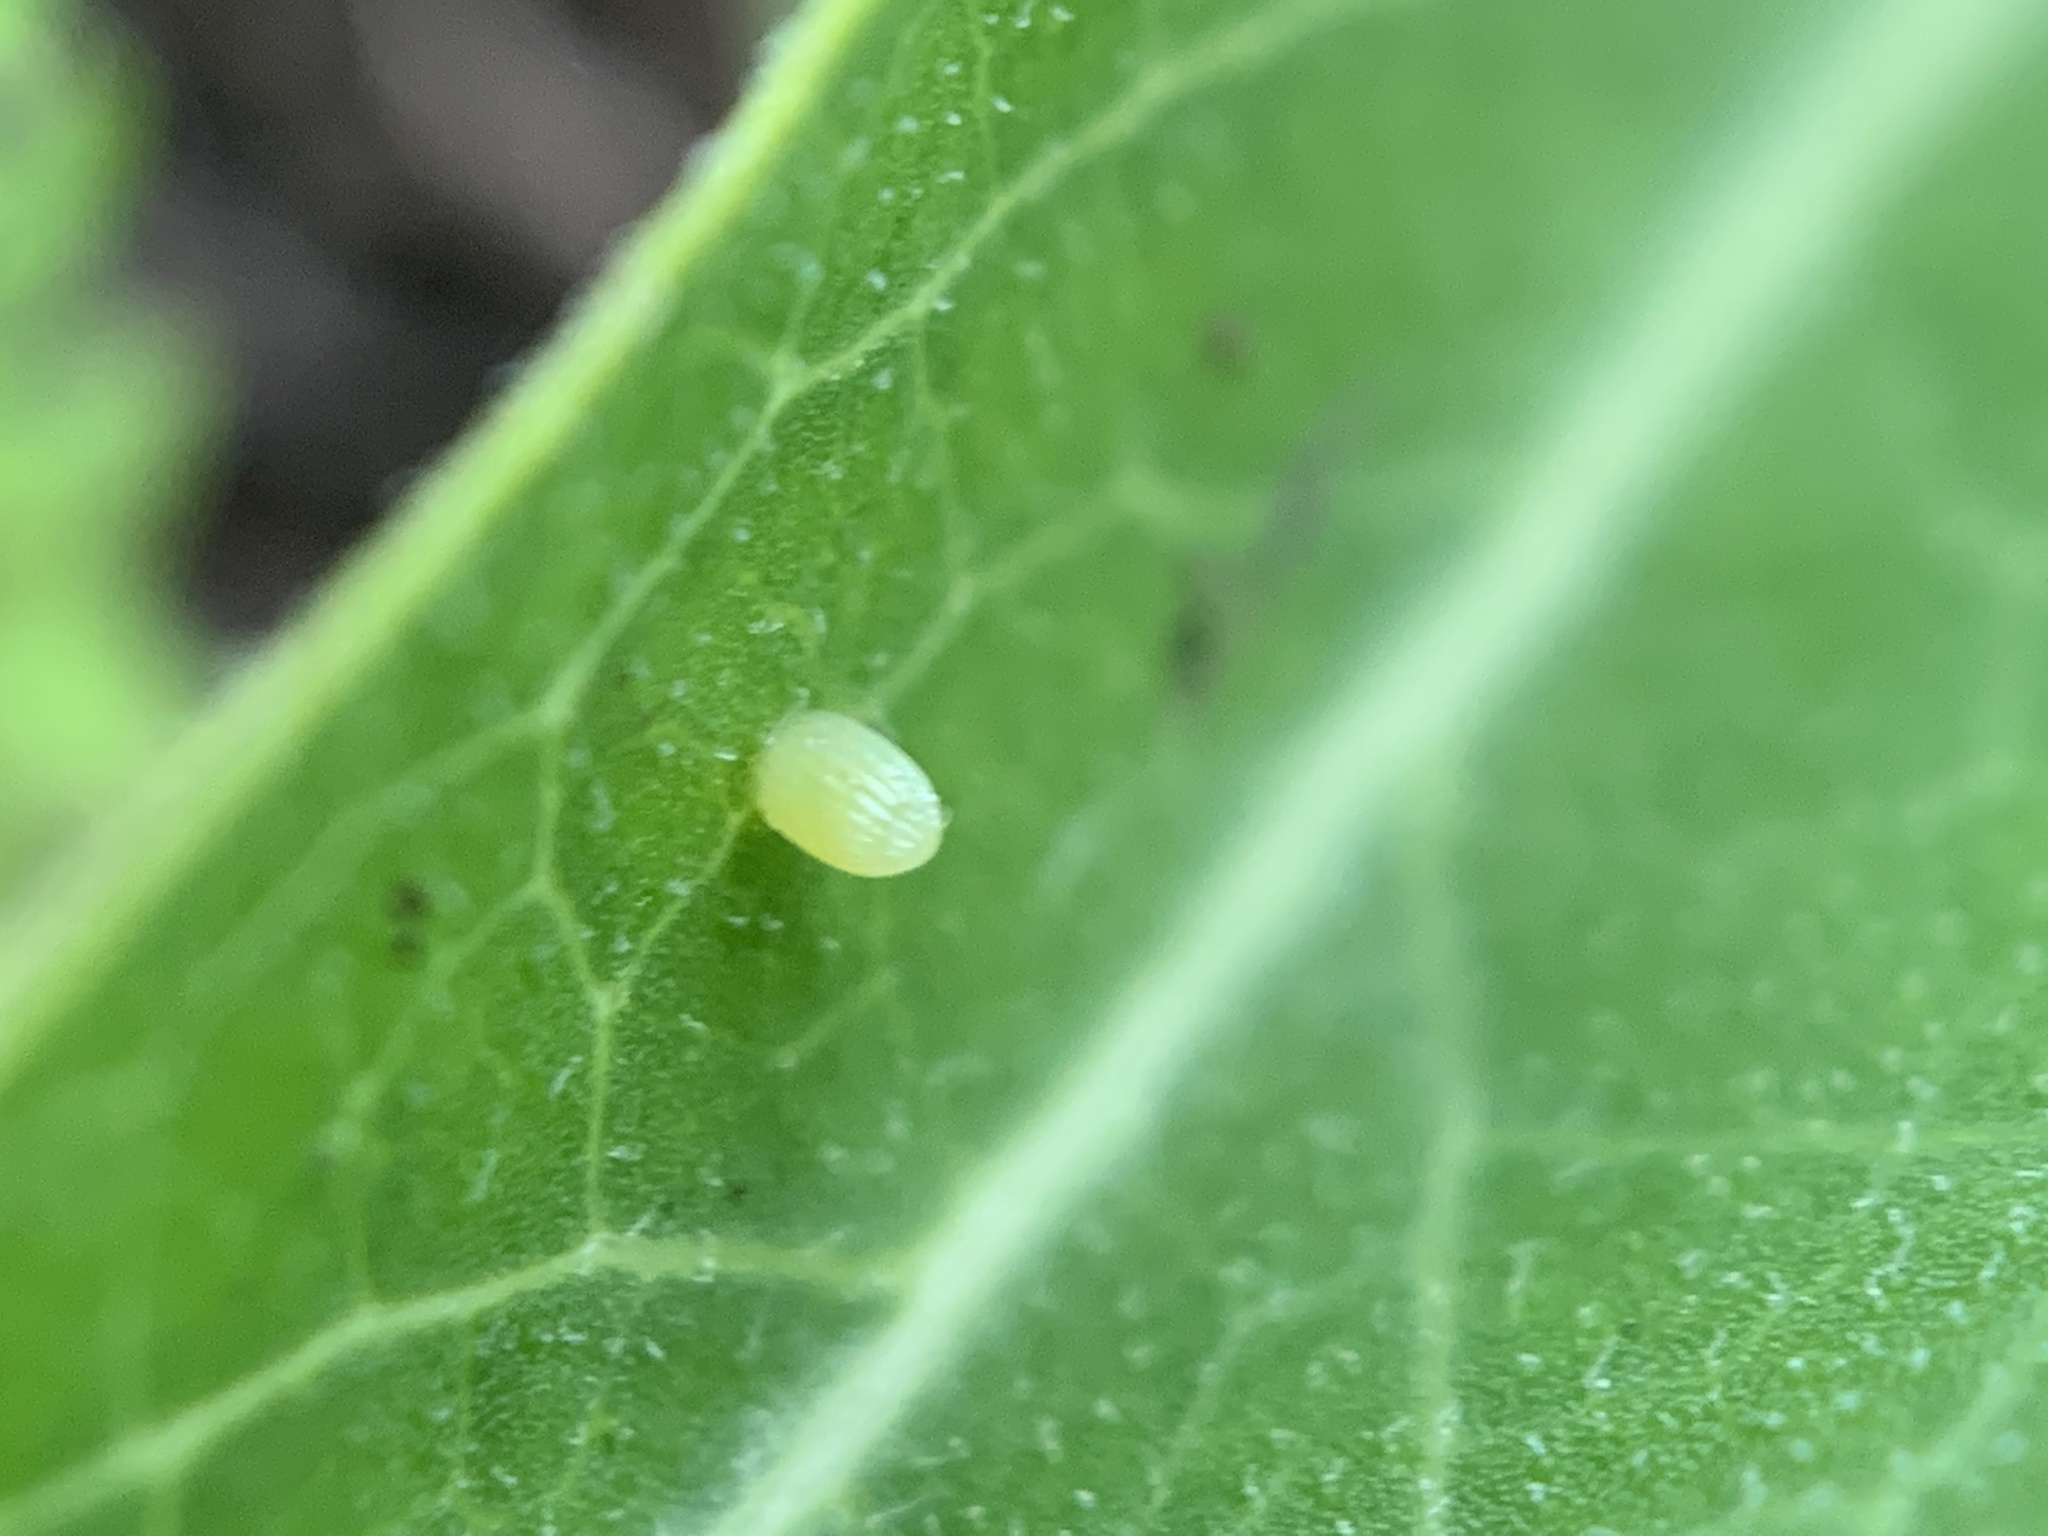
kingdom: Animalia
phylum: Arthropoda
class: Insecta
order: Lepidoptera
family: Nymphalidae
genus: Danaus
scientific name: Danaus plexippus
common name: Monarch
